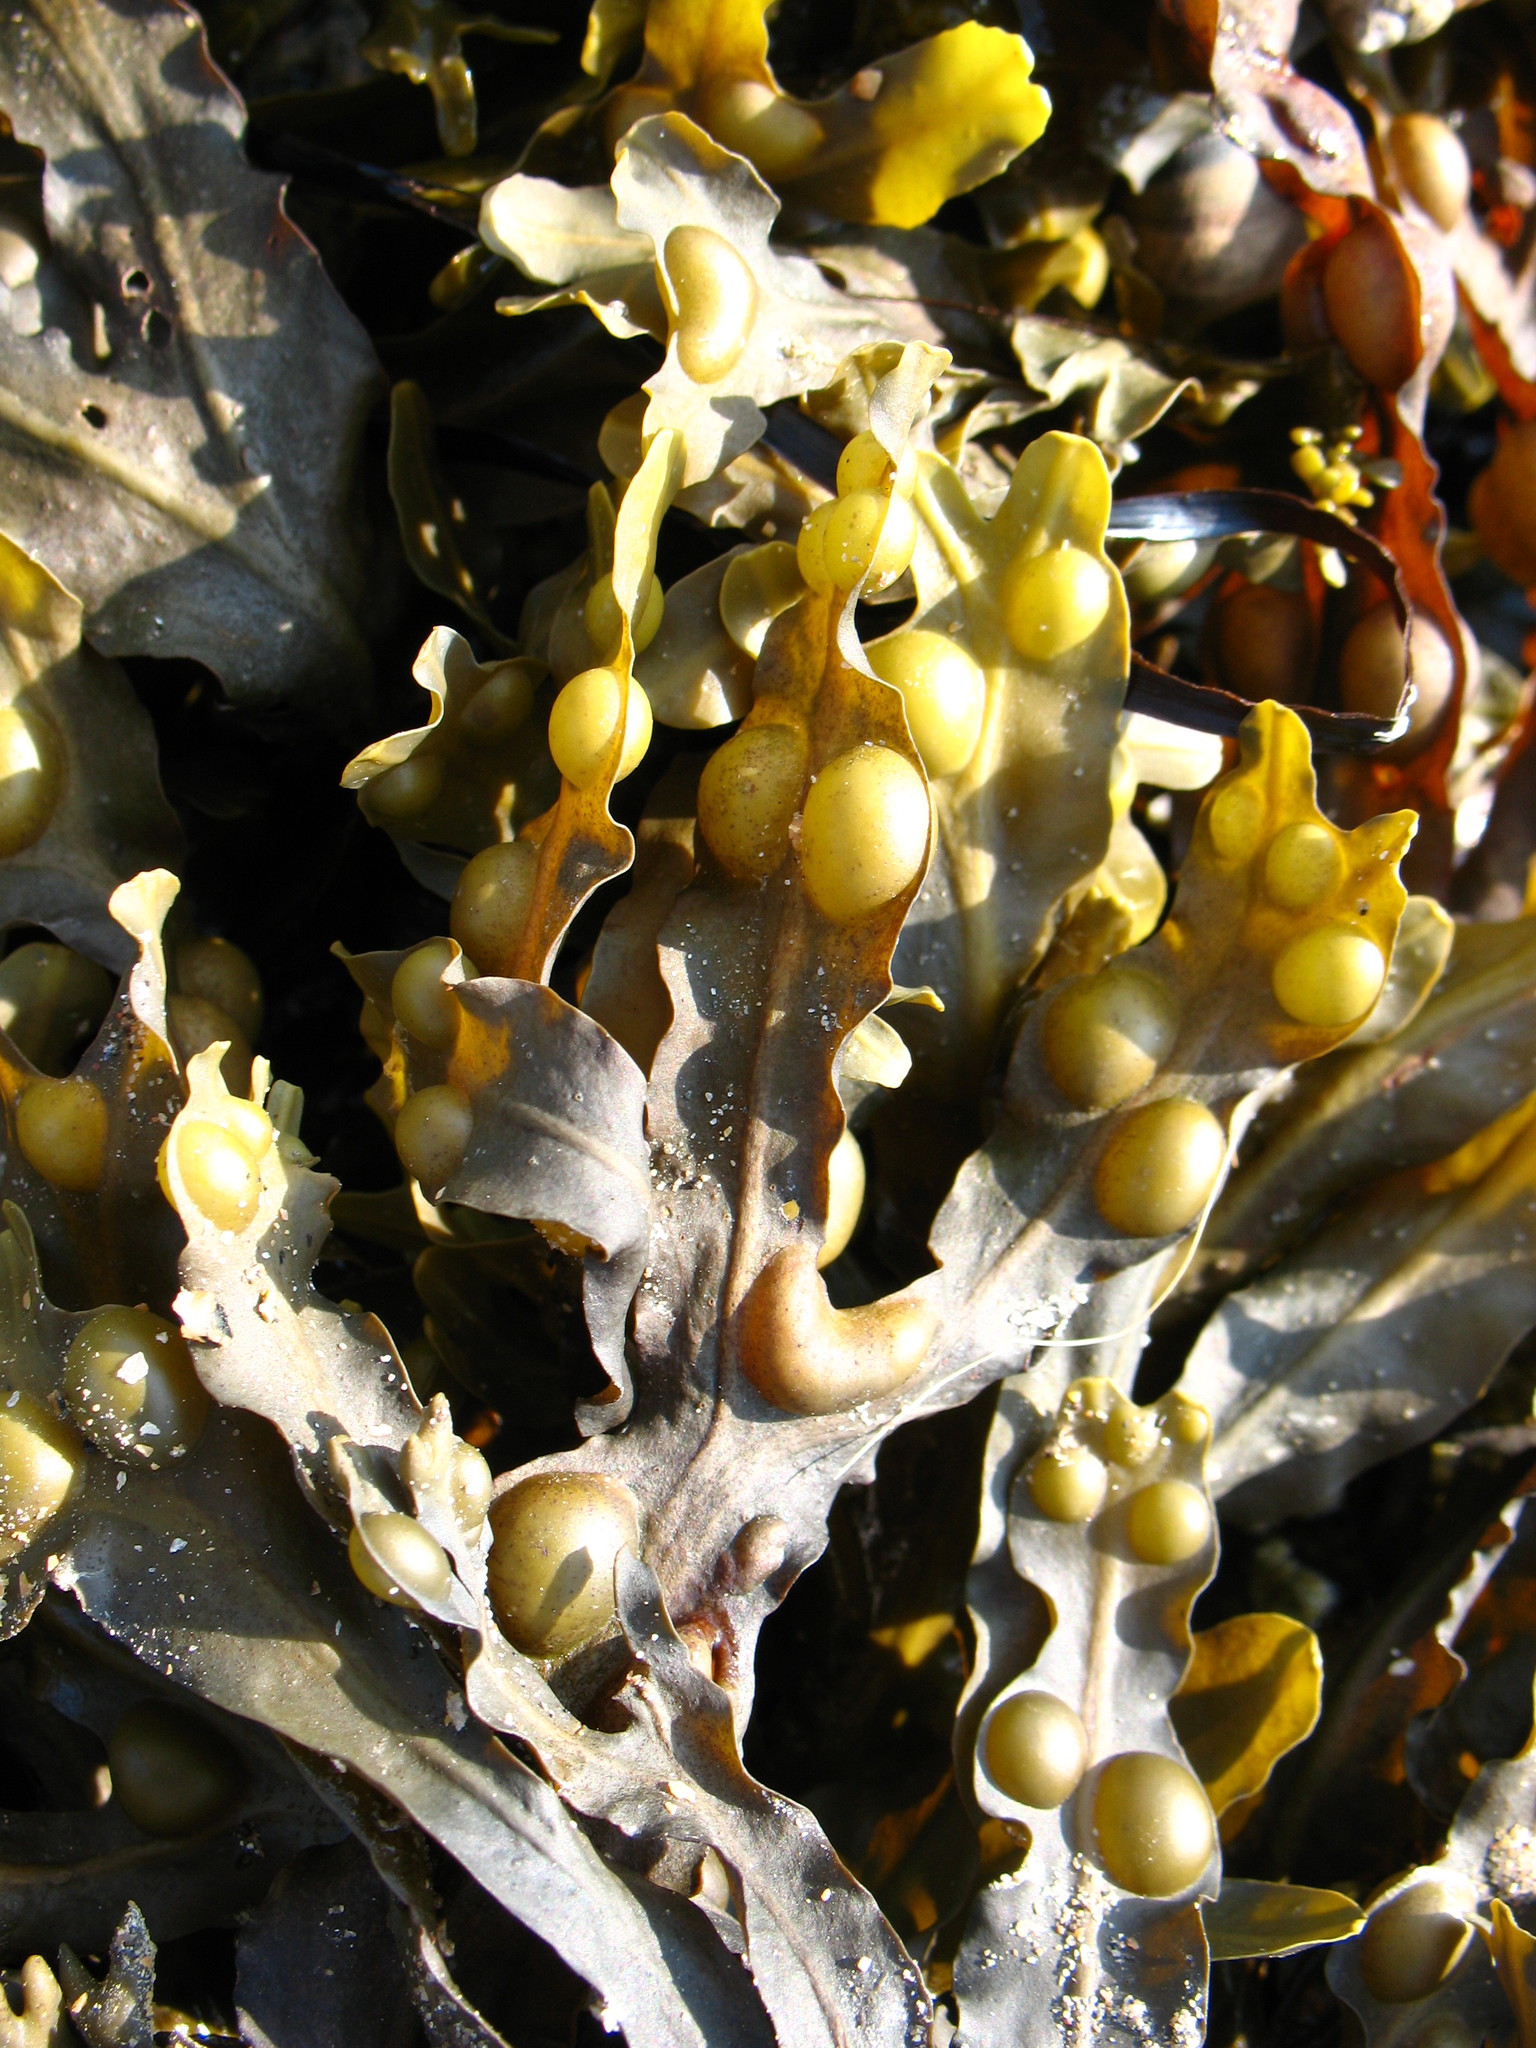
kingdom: Chromista
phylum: Ochrophyta
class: Phaeophyceae
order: Fucales
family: Fucaceae
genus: Fucus
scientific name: Fucus vesiculosus
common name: Bladder wrack
